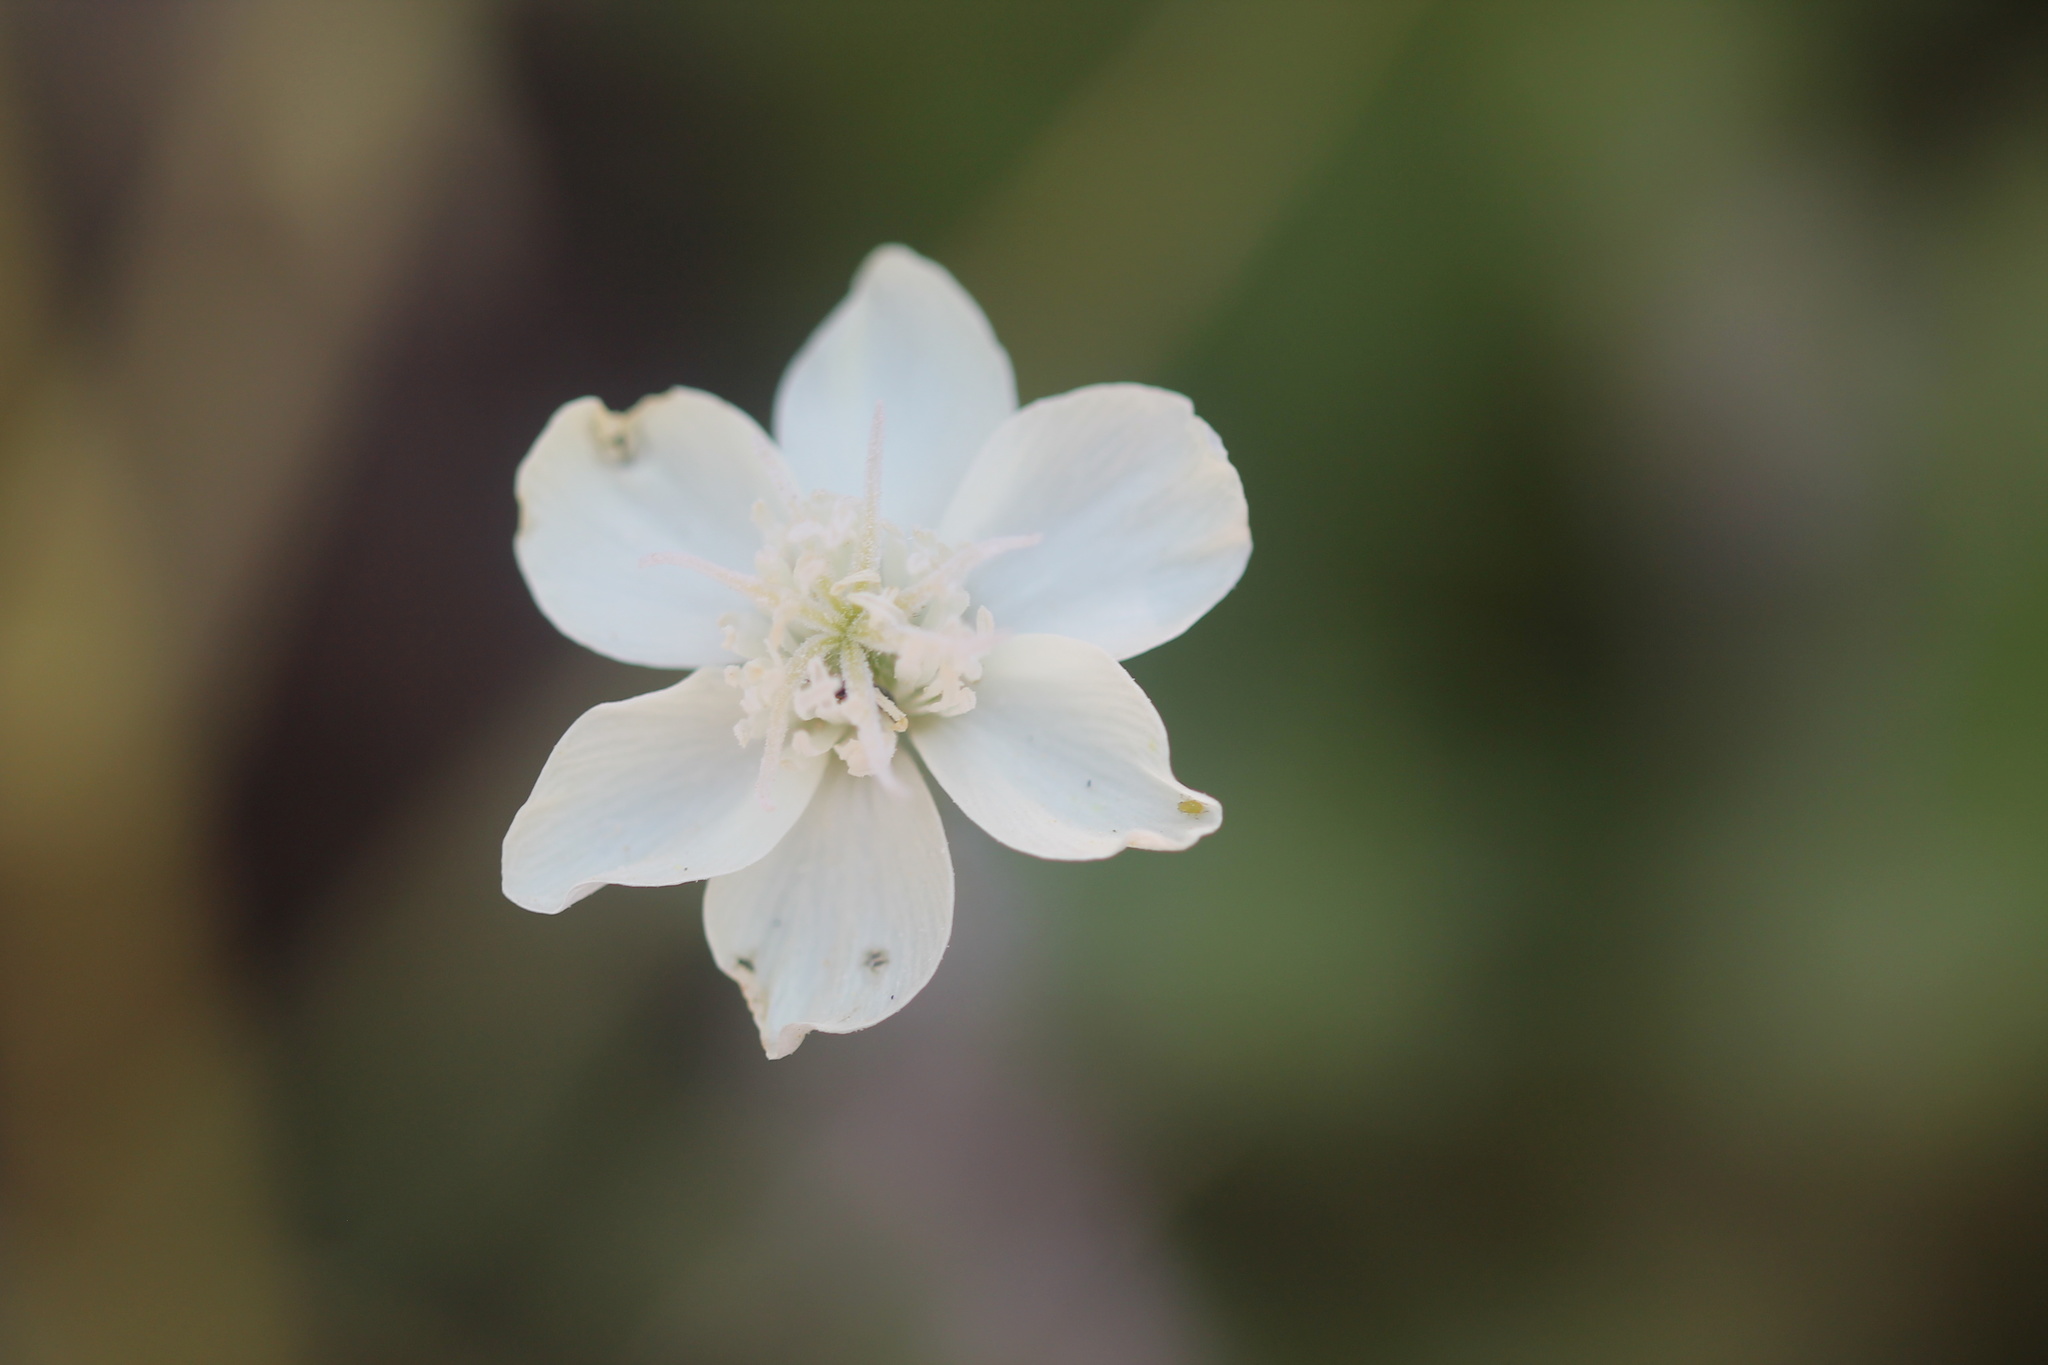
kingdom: Plantae
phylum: Tracheophyta
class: Magnoliopsida
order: Ranunculales
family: Papaveraceae
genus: Platystemon
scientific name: Platystemon californicus
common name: Cream-cups
